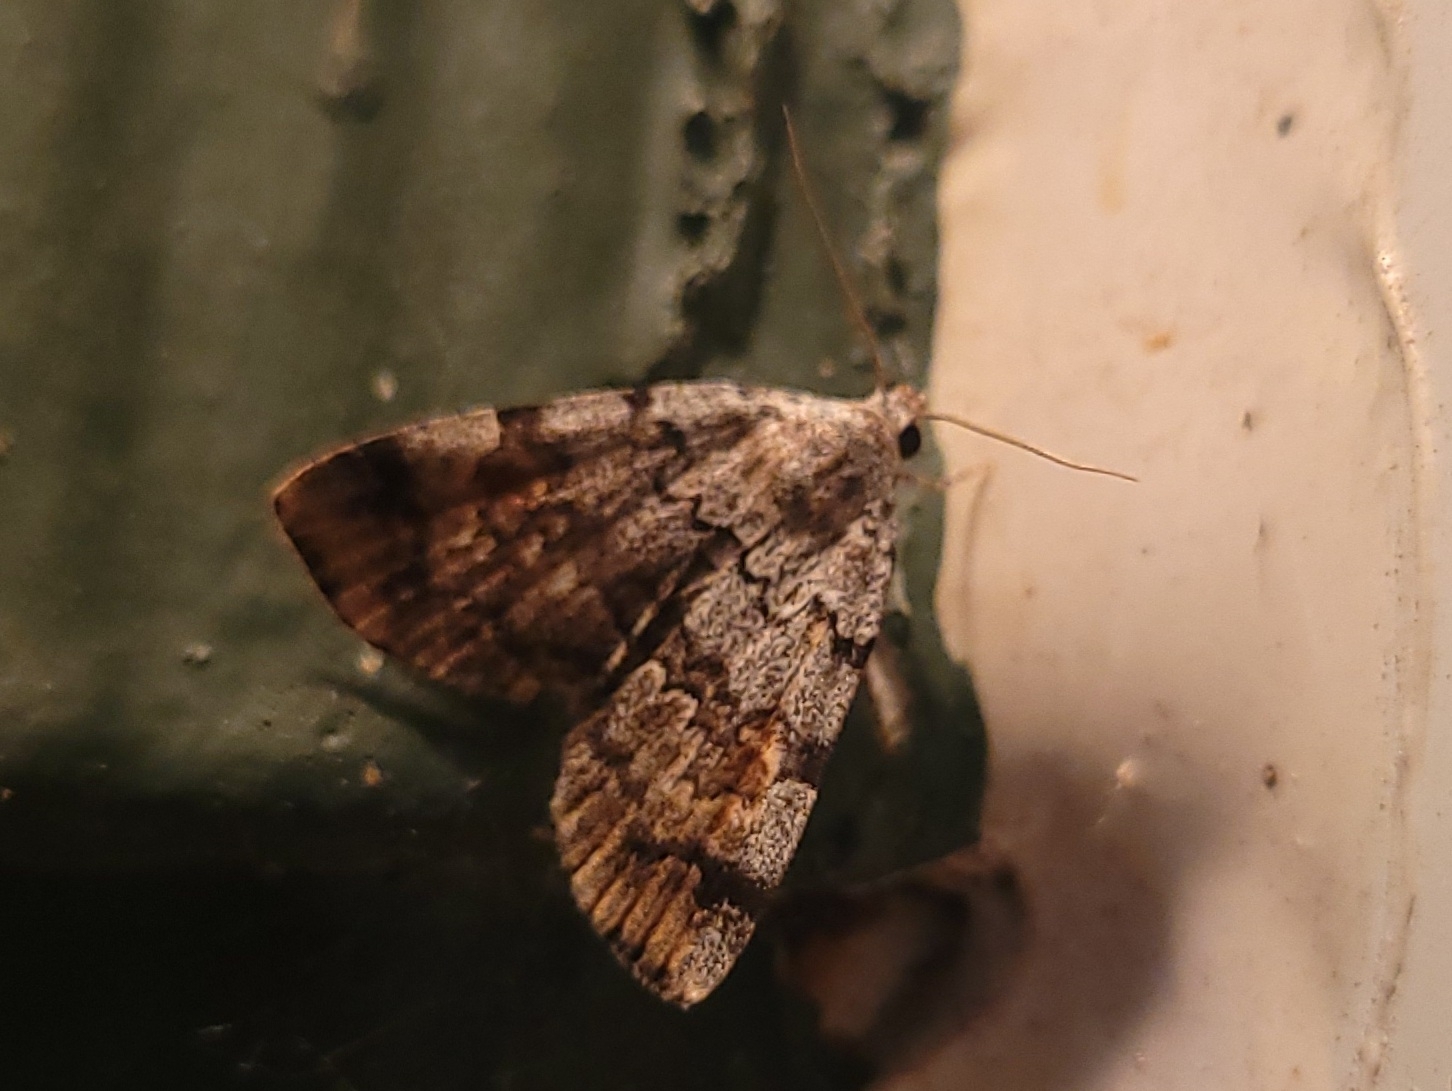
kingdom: Animalia
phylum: Arthropoda
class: Insecta
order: Lepidoptera
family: Erebidae
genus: Idia
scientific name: Idia americalis
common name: American idia moth
